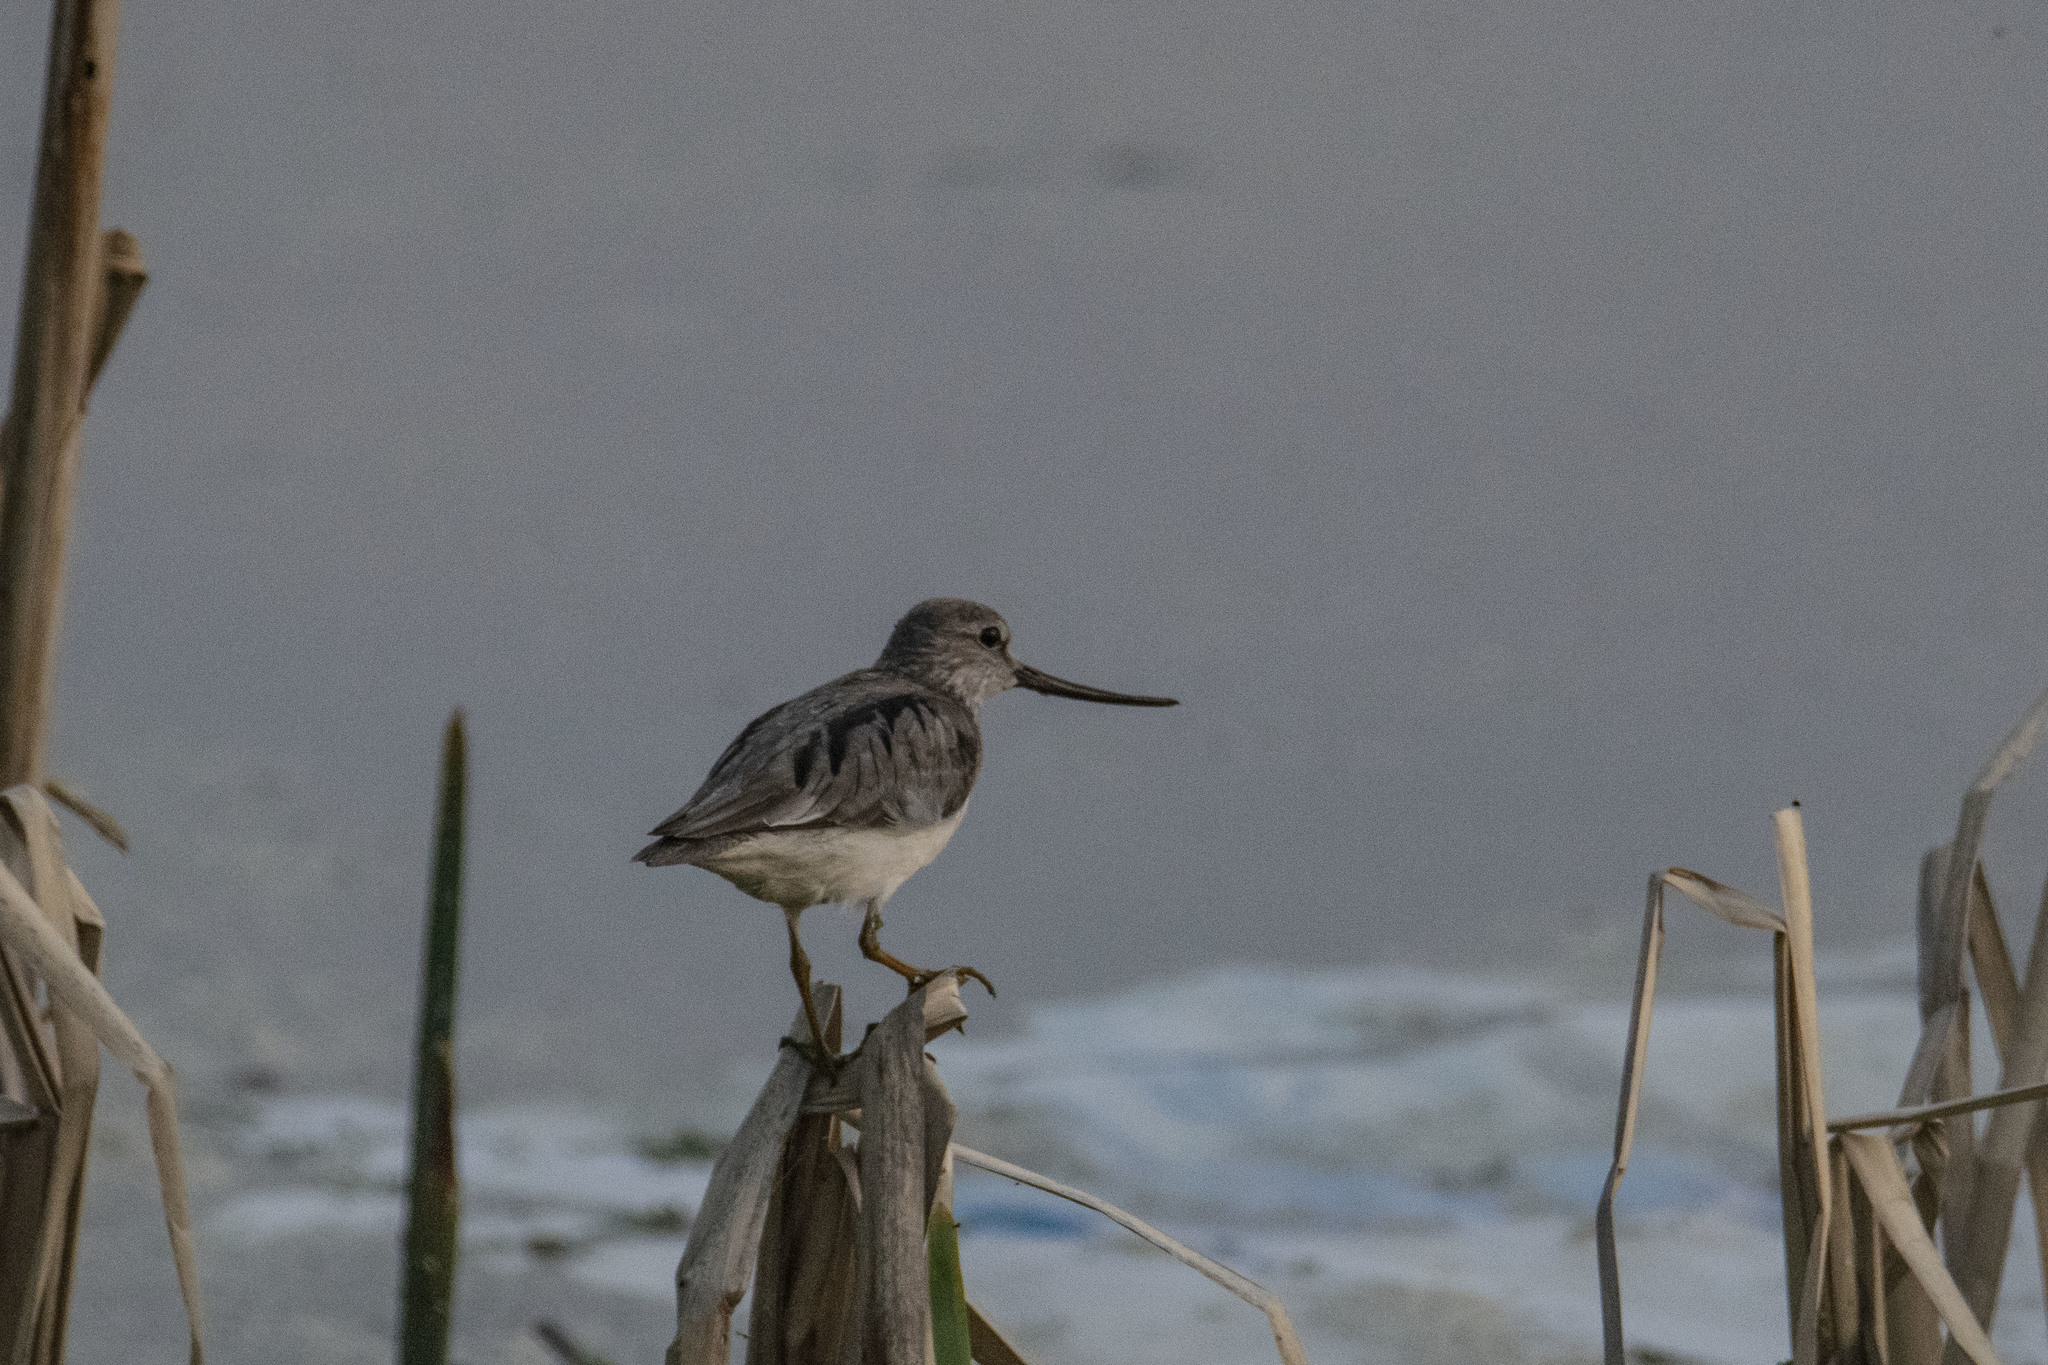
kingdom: Animalia
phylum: Chordata
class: Aves
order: Charadriiformes
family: Scolopacidae
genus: Xenus
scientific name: Xenus cinereus
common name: Terek sandpiper
